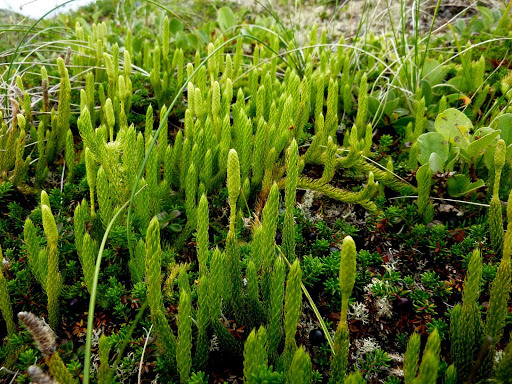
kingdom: Plantae
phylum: Tracheophyta
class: Lycopodiopsida
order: Lycopodiales
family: Lycopodiaceae
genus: Lycopodium
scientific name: Lycopodium lagopus
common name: One-cone clubmoss
